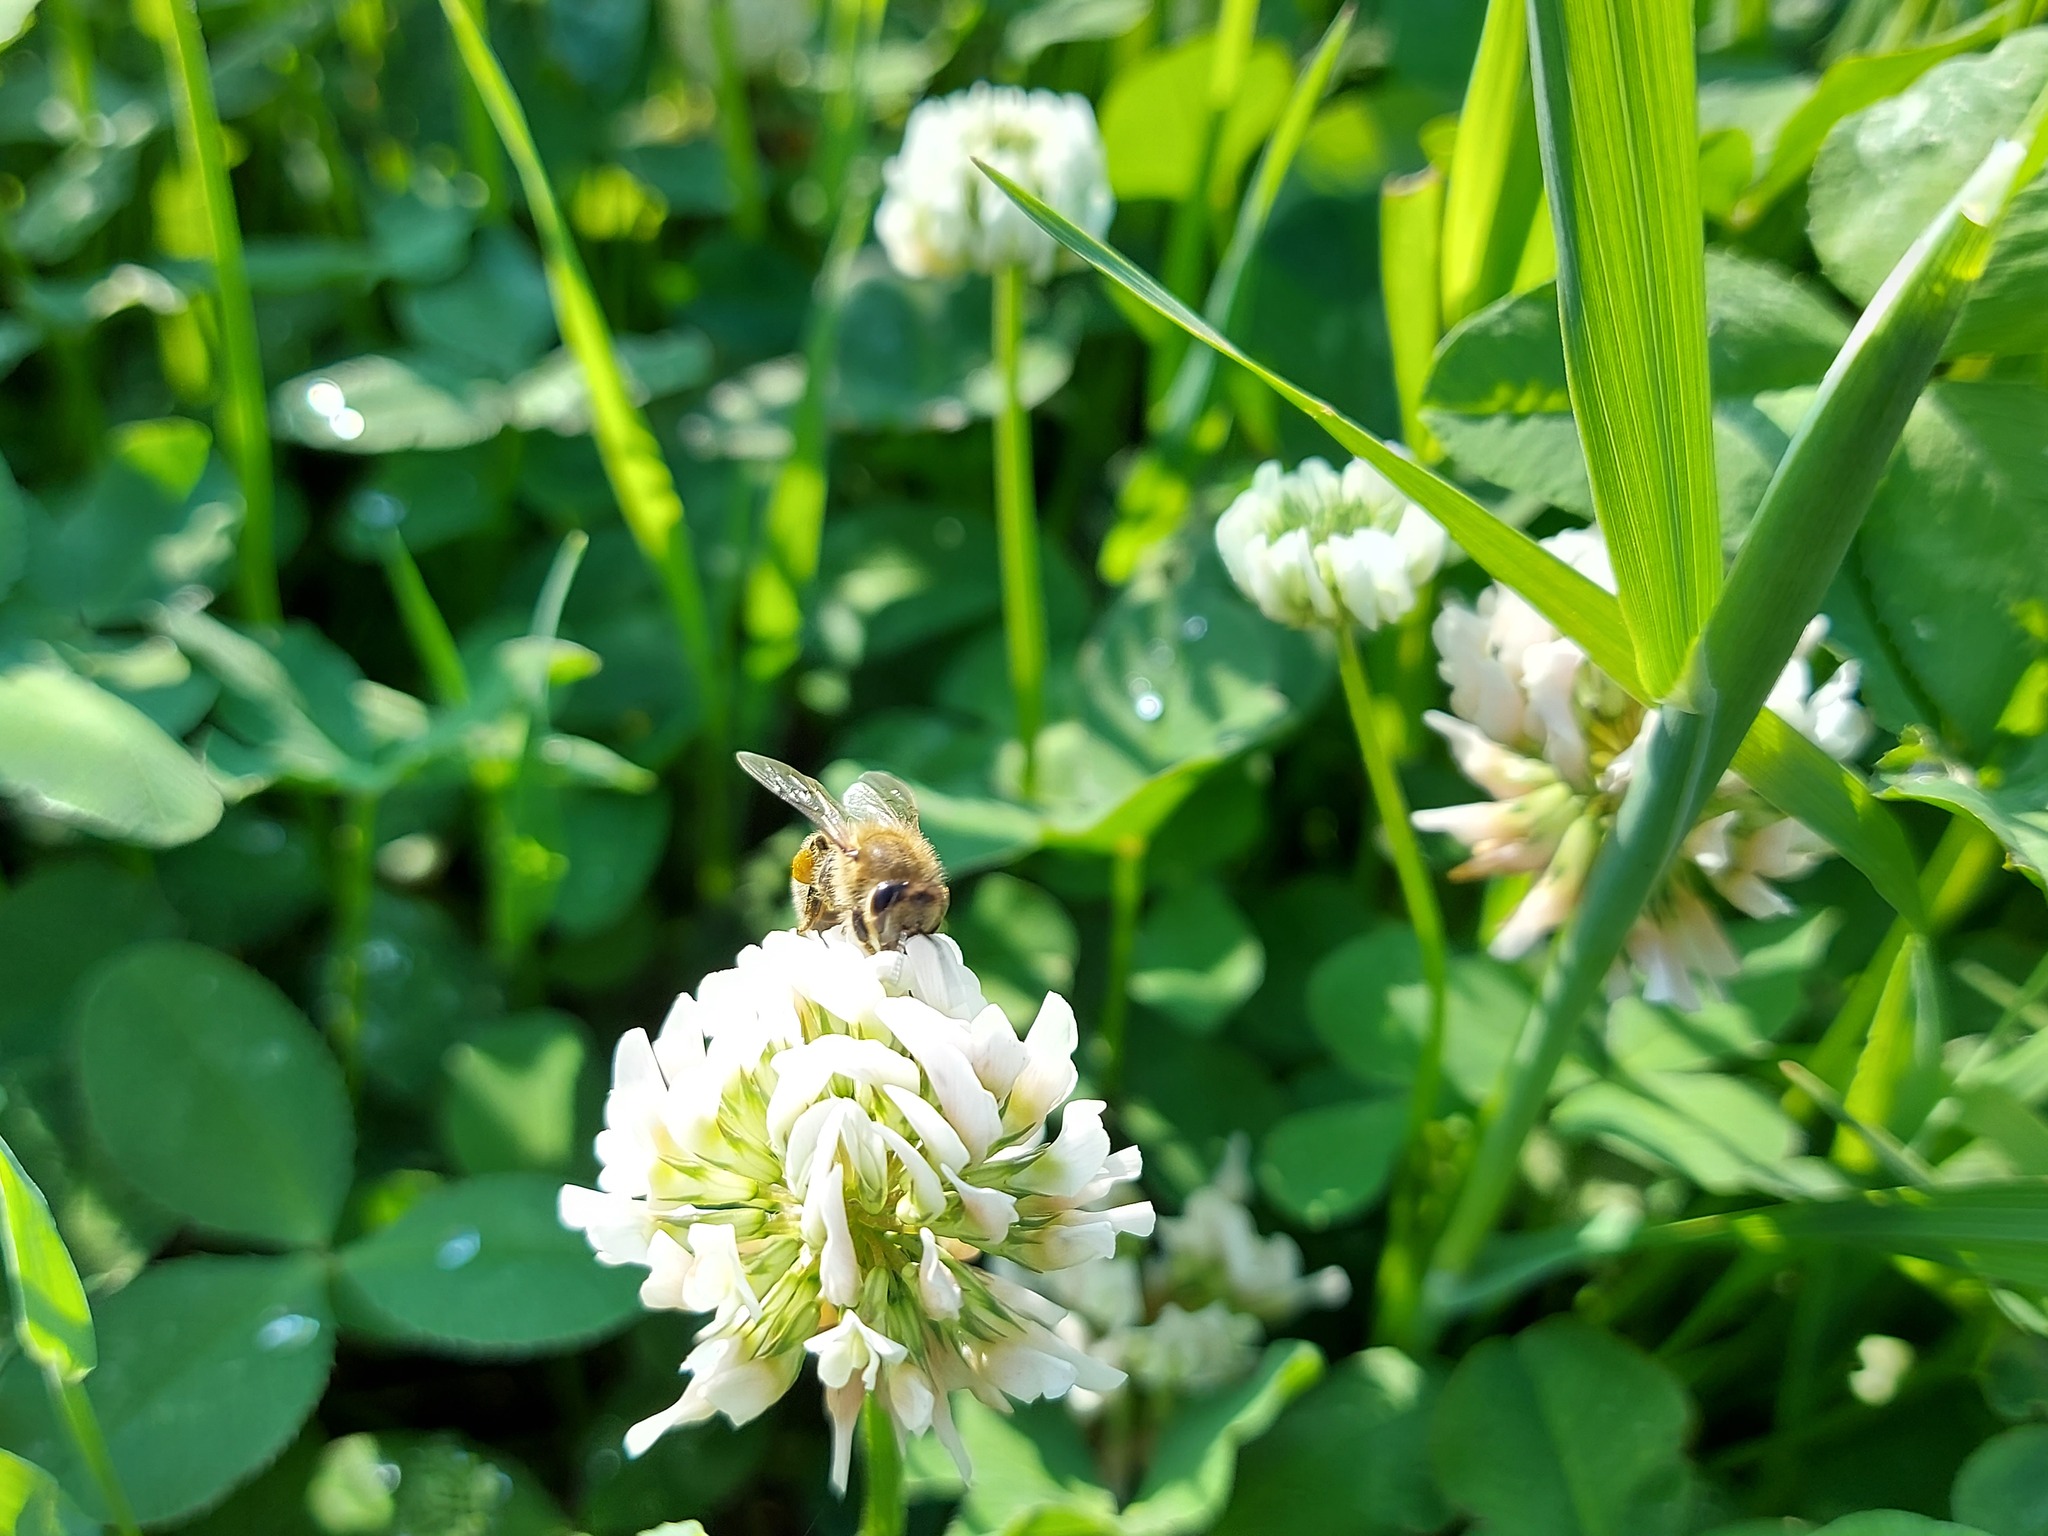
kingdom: Plantae
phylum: Tracheophyta
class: Magnoliopsida
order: Fabales
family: Fabaceae
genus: Trifolium
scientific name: Trifolium repens
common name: White clover
